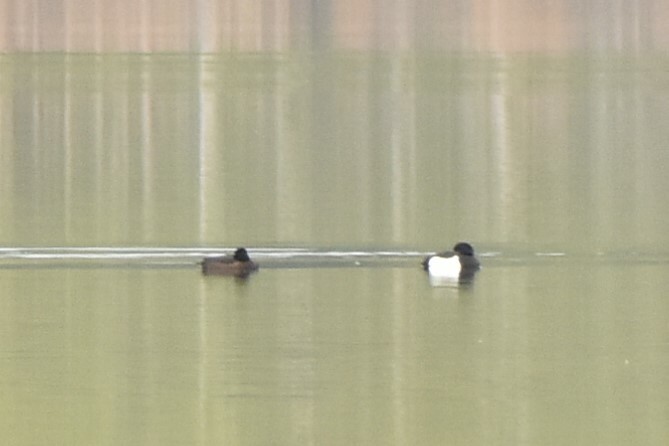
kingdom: Animalia
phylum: Chordata
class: Aves
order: Anseriformes
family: Anatidae
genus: Aythya
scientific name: Aythya fuligula
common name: Tufted duck
